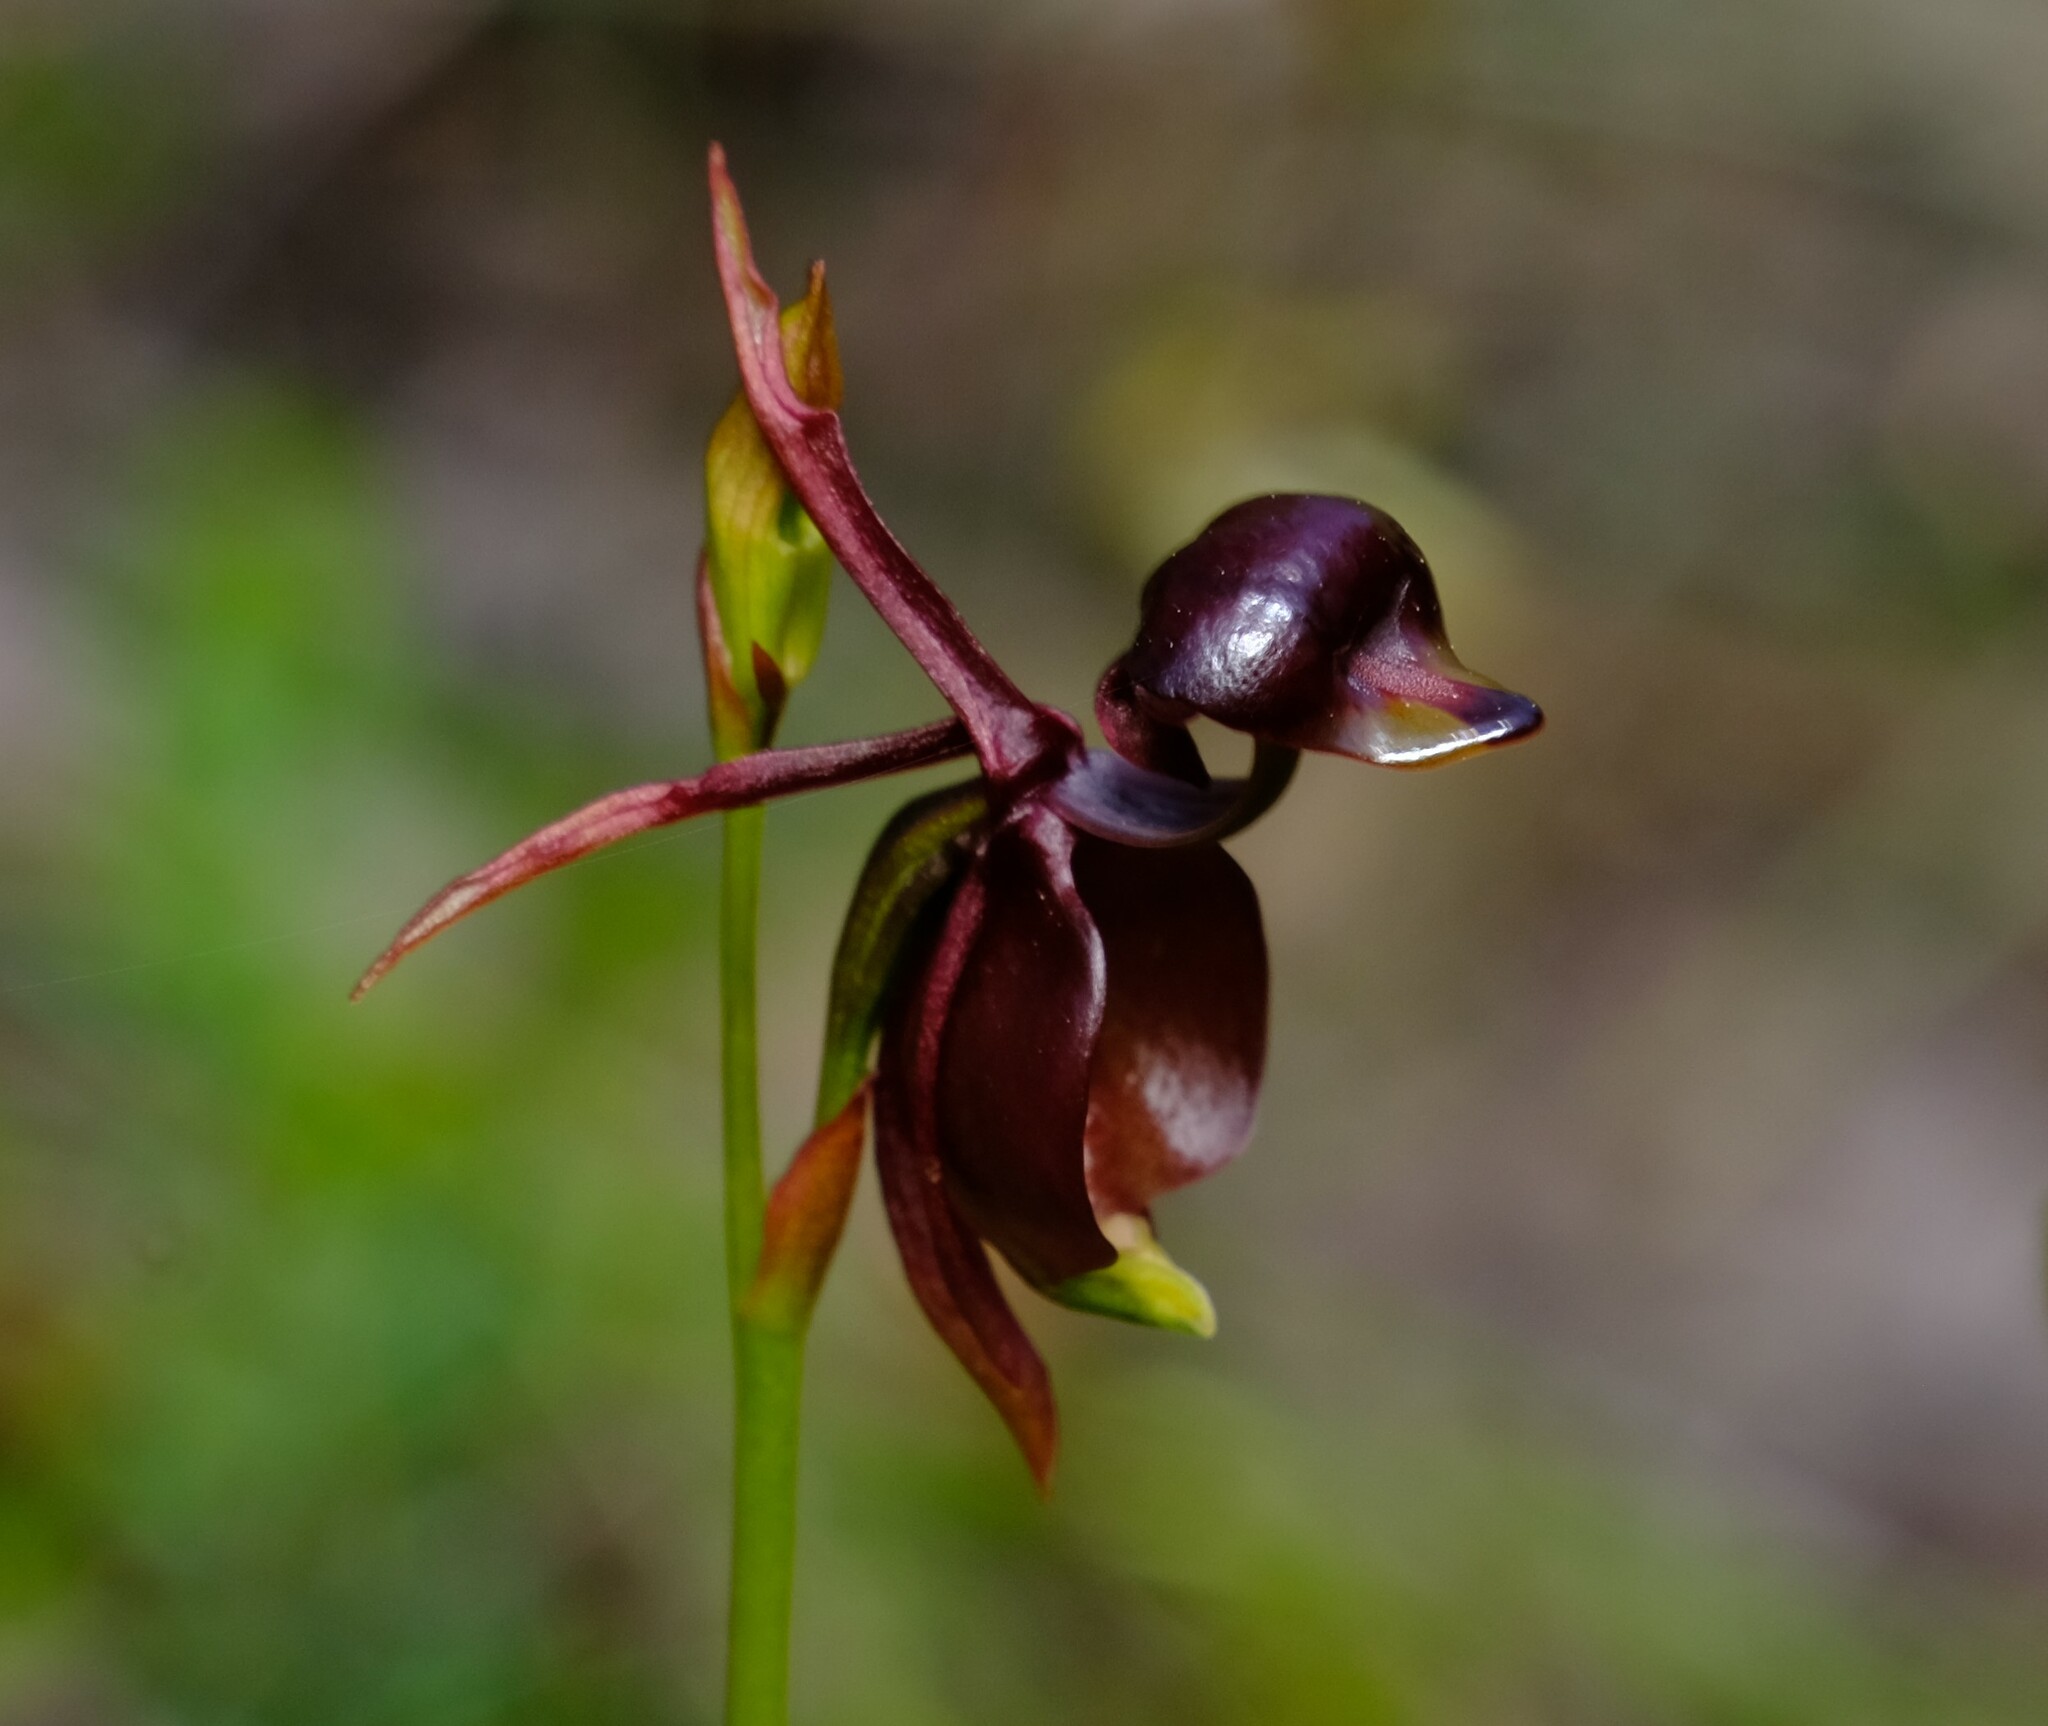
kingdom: Plantae
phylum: Tracheophyta
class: Liliopsida
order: Asparagales
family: Orchidaceae
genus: Caleana
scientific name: Caleana major
